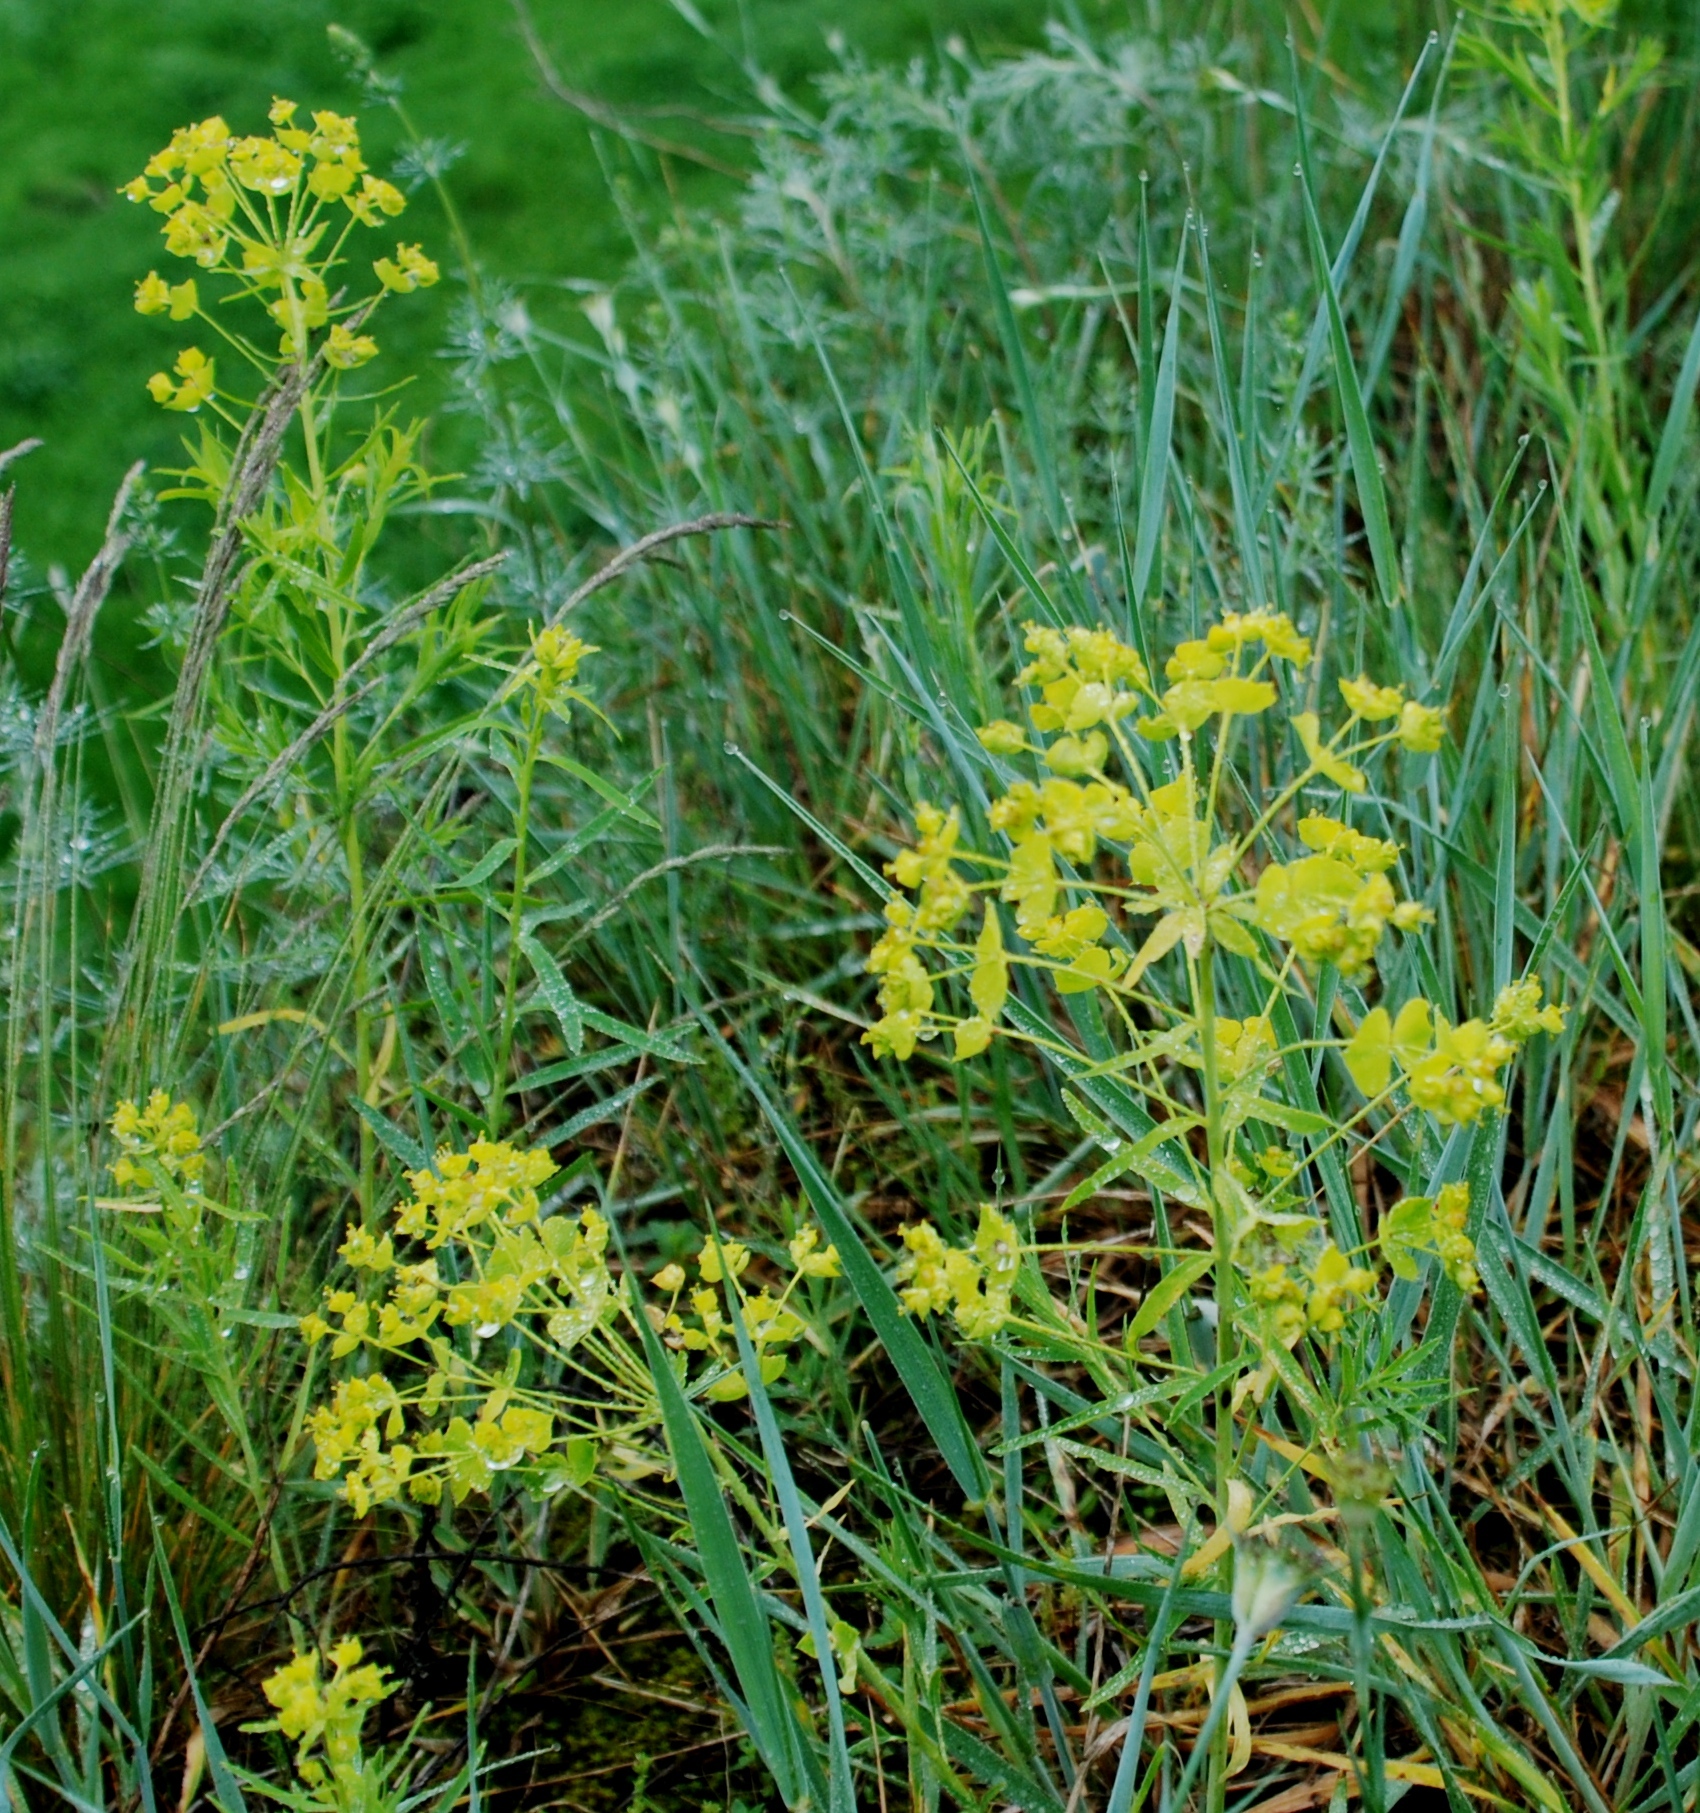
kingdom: Plantae
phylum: Tracheophyta
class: Magnoliopsida
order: Malpighiales
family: Euphorbiaceae
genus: Euphorbia
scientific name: Euphorbia virgata
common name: Leafy spurge
